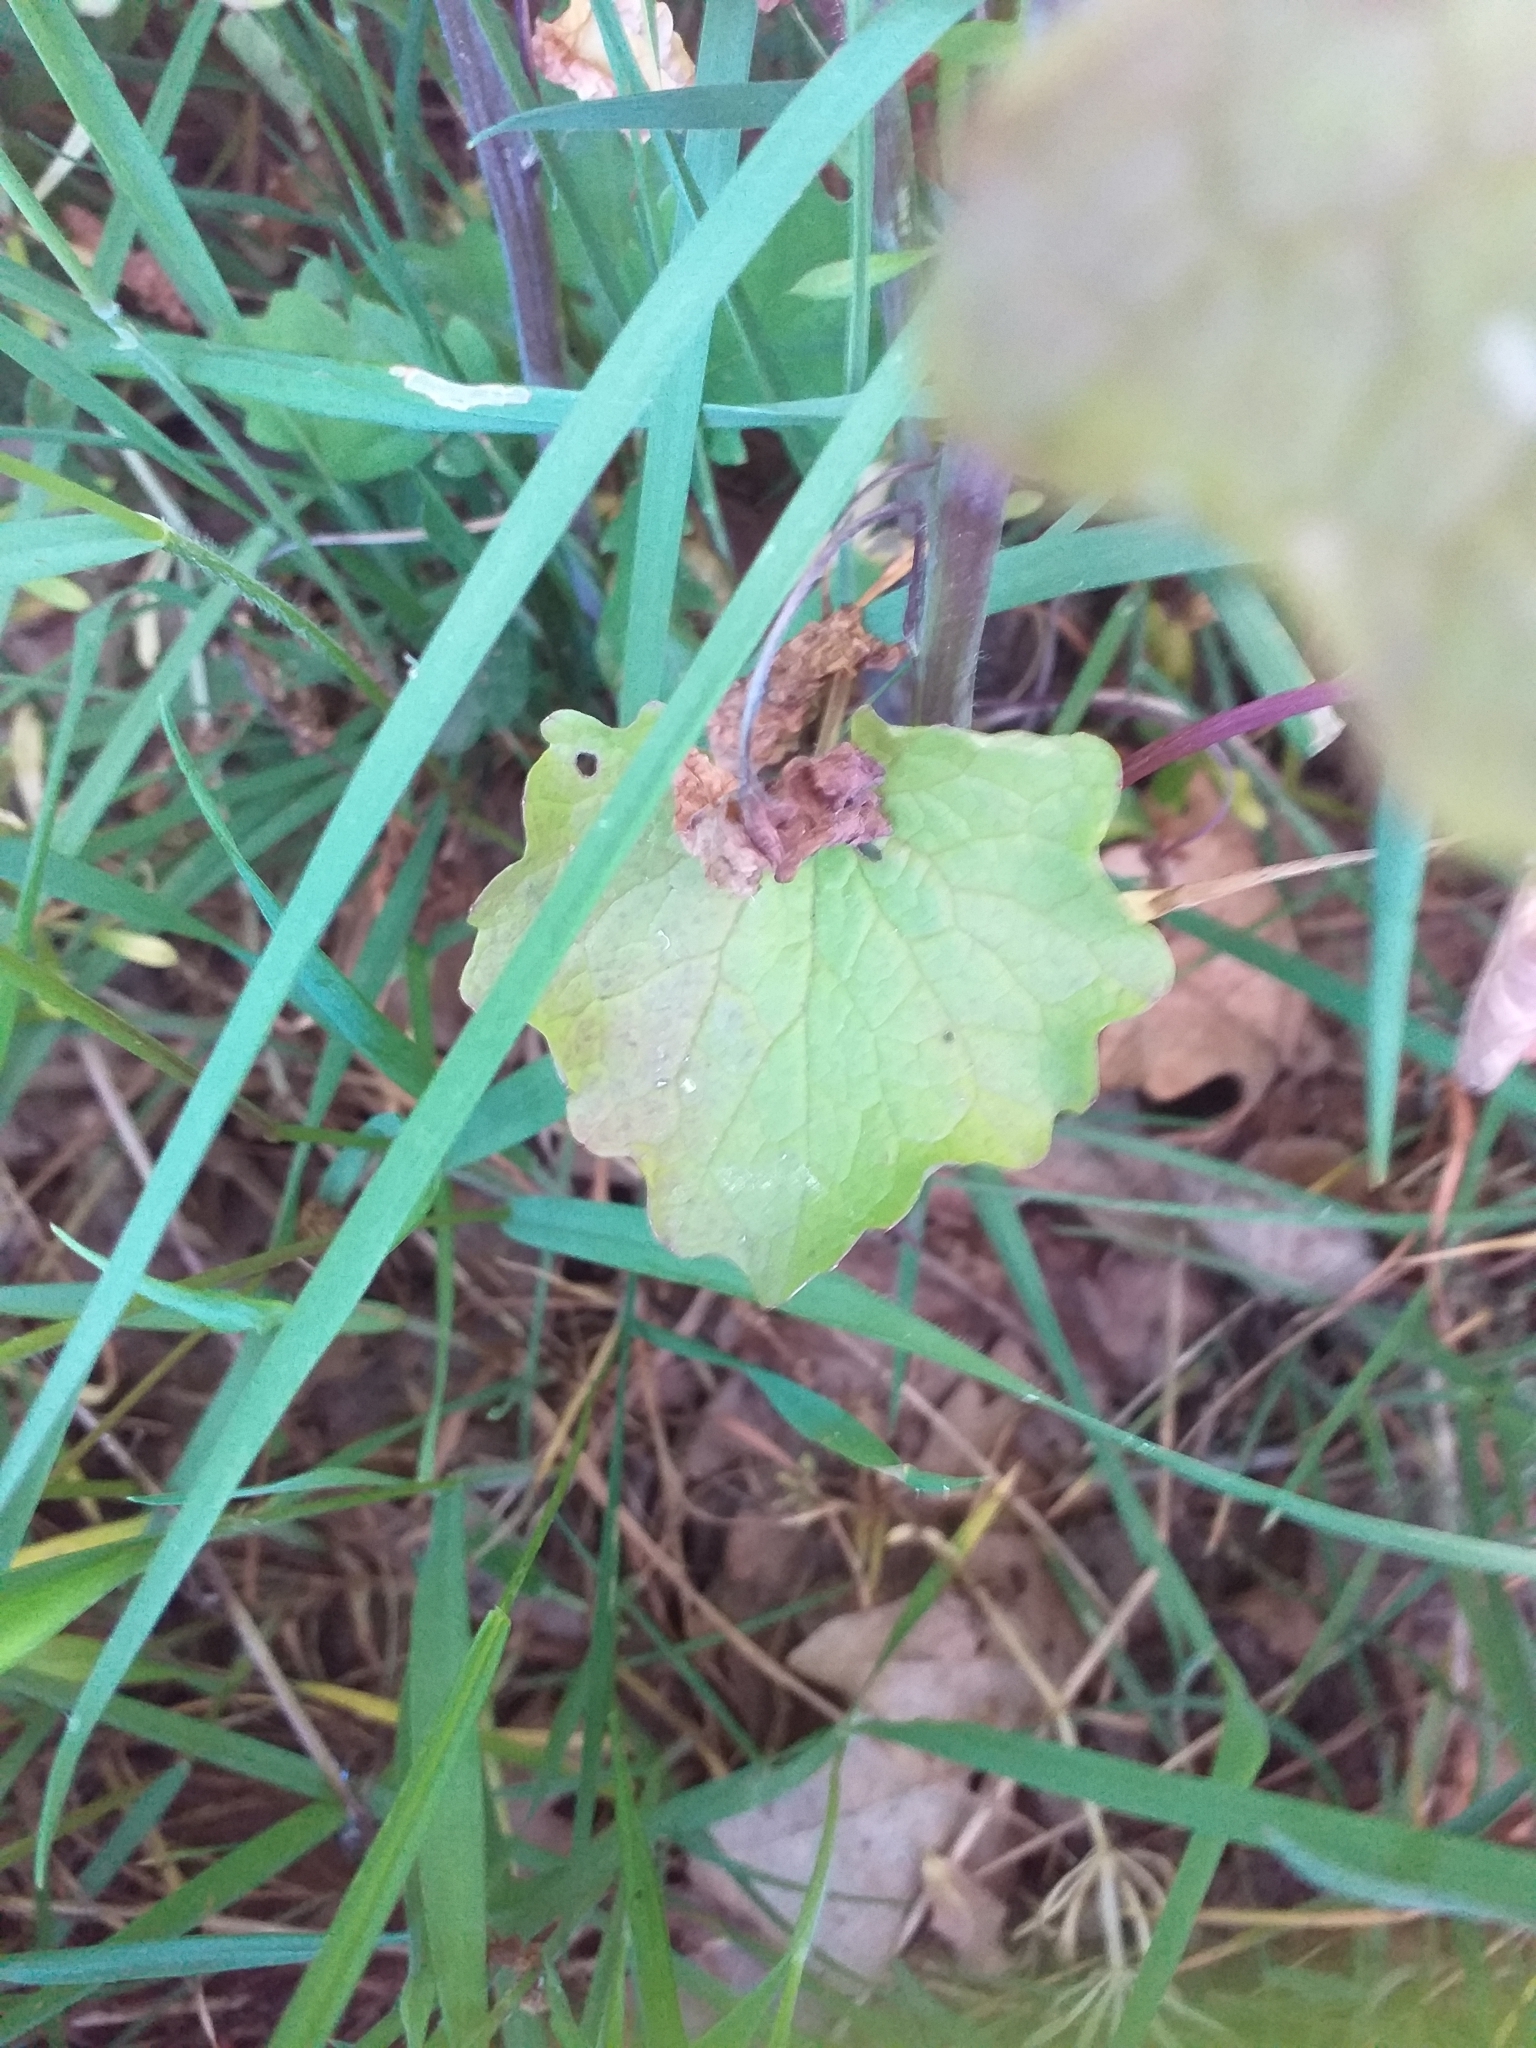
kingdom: Plantae
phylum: Tracheophyta
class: Magnoliopsida
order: Brassicales
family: Brassicaceae
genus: Alliaria
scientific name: Alliaria petiolata
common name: Garlic mustard
